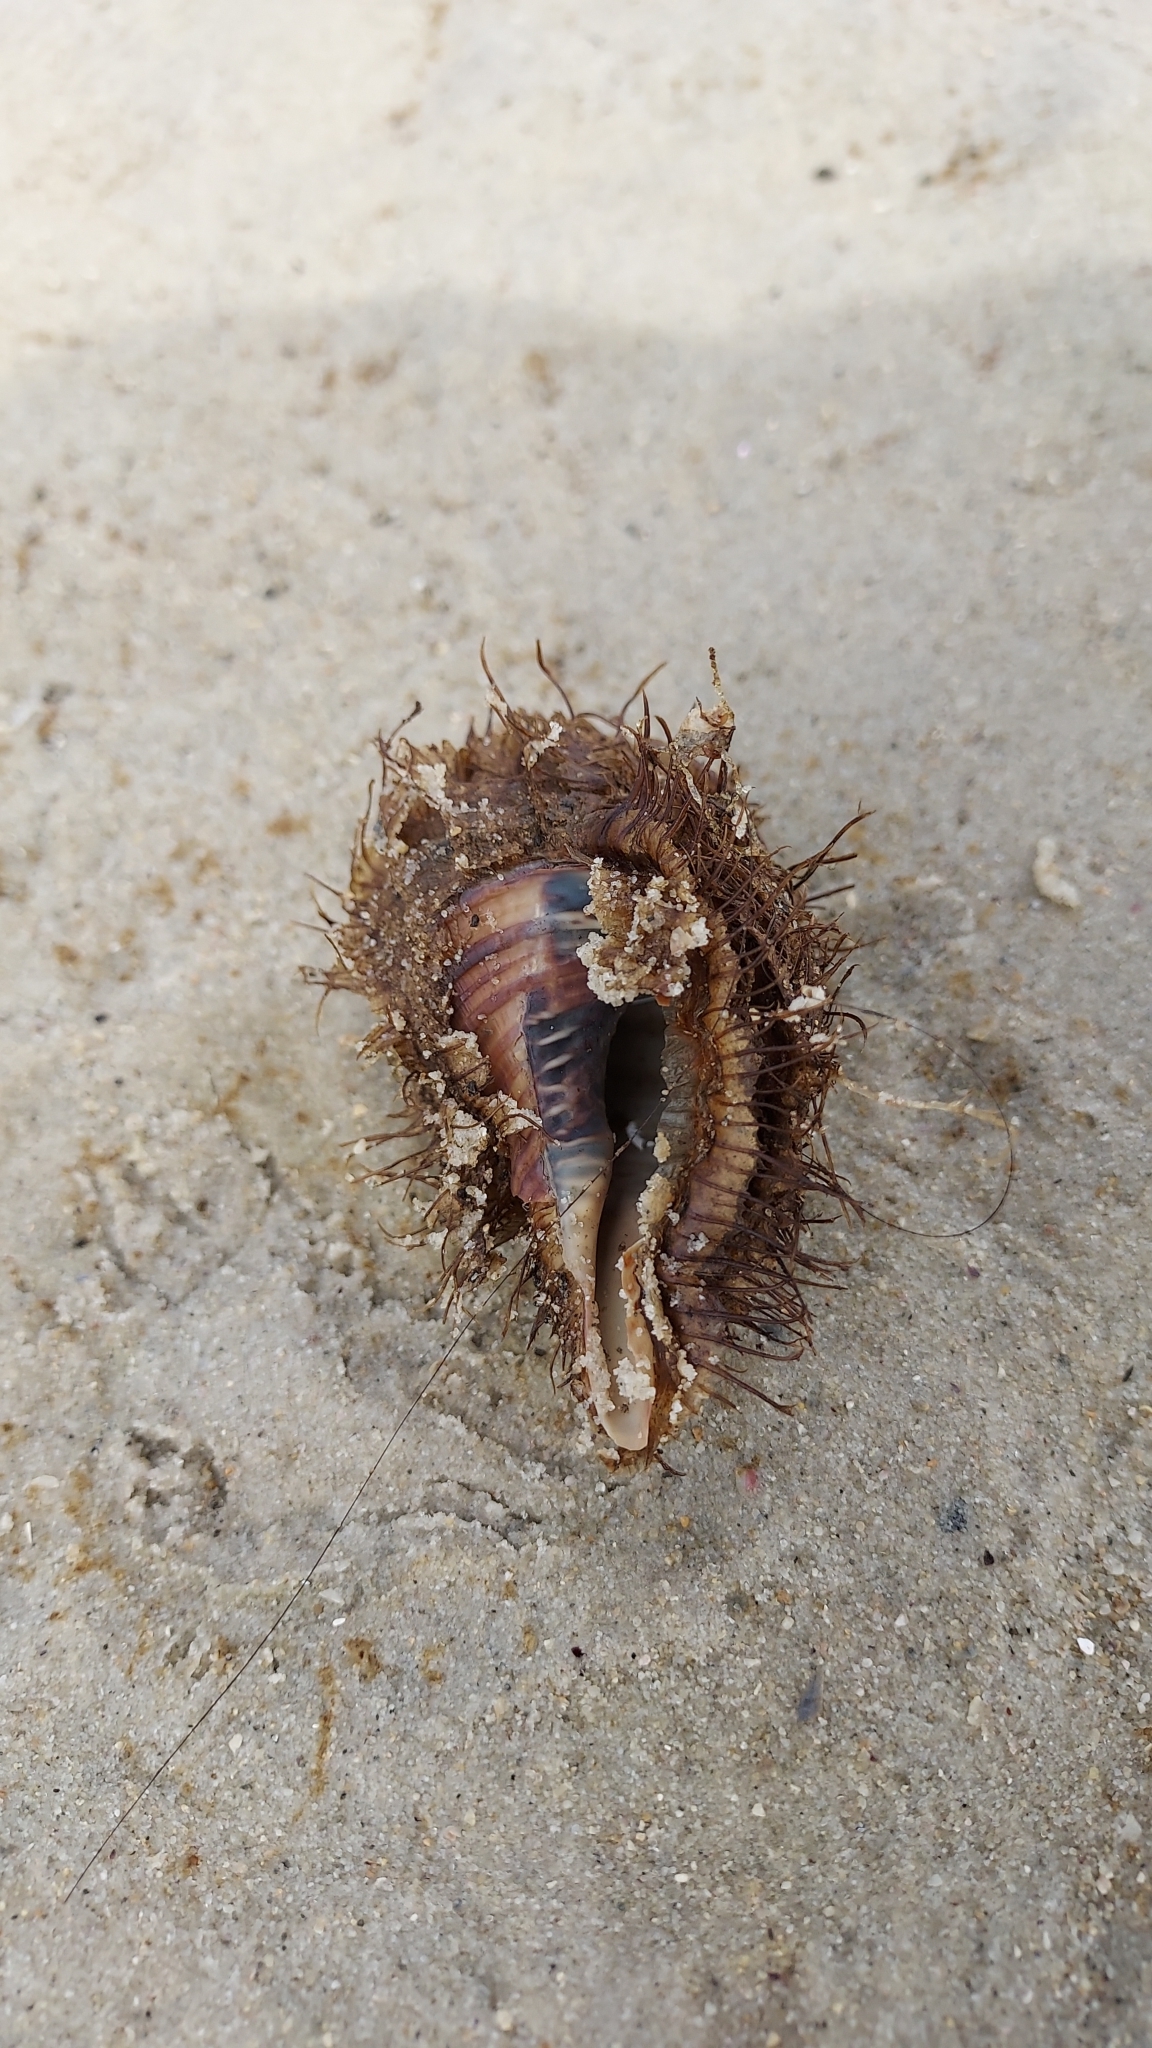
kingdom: Animalia
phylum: Mollusca
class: Gastropoda
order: Littorinimorpha
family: Cymatiidae
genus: Monoplex
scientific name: Monoplex parthenopeus
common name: Giant triton
